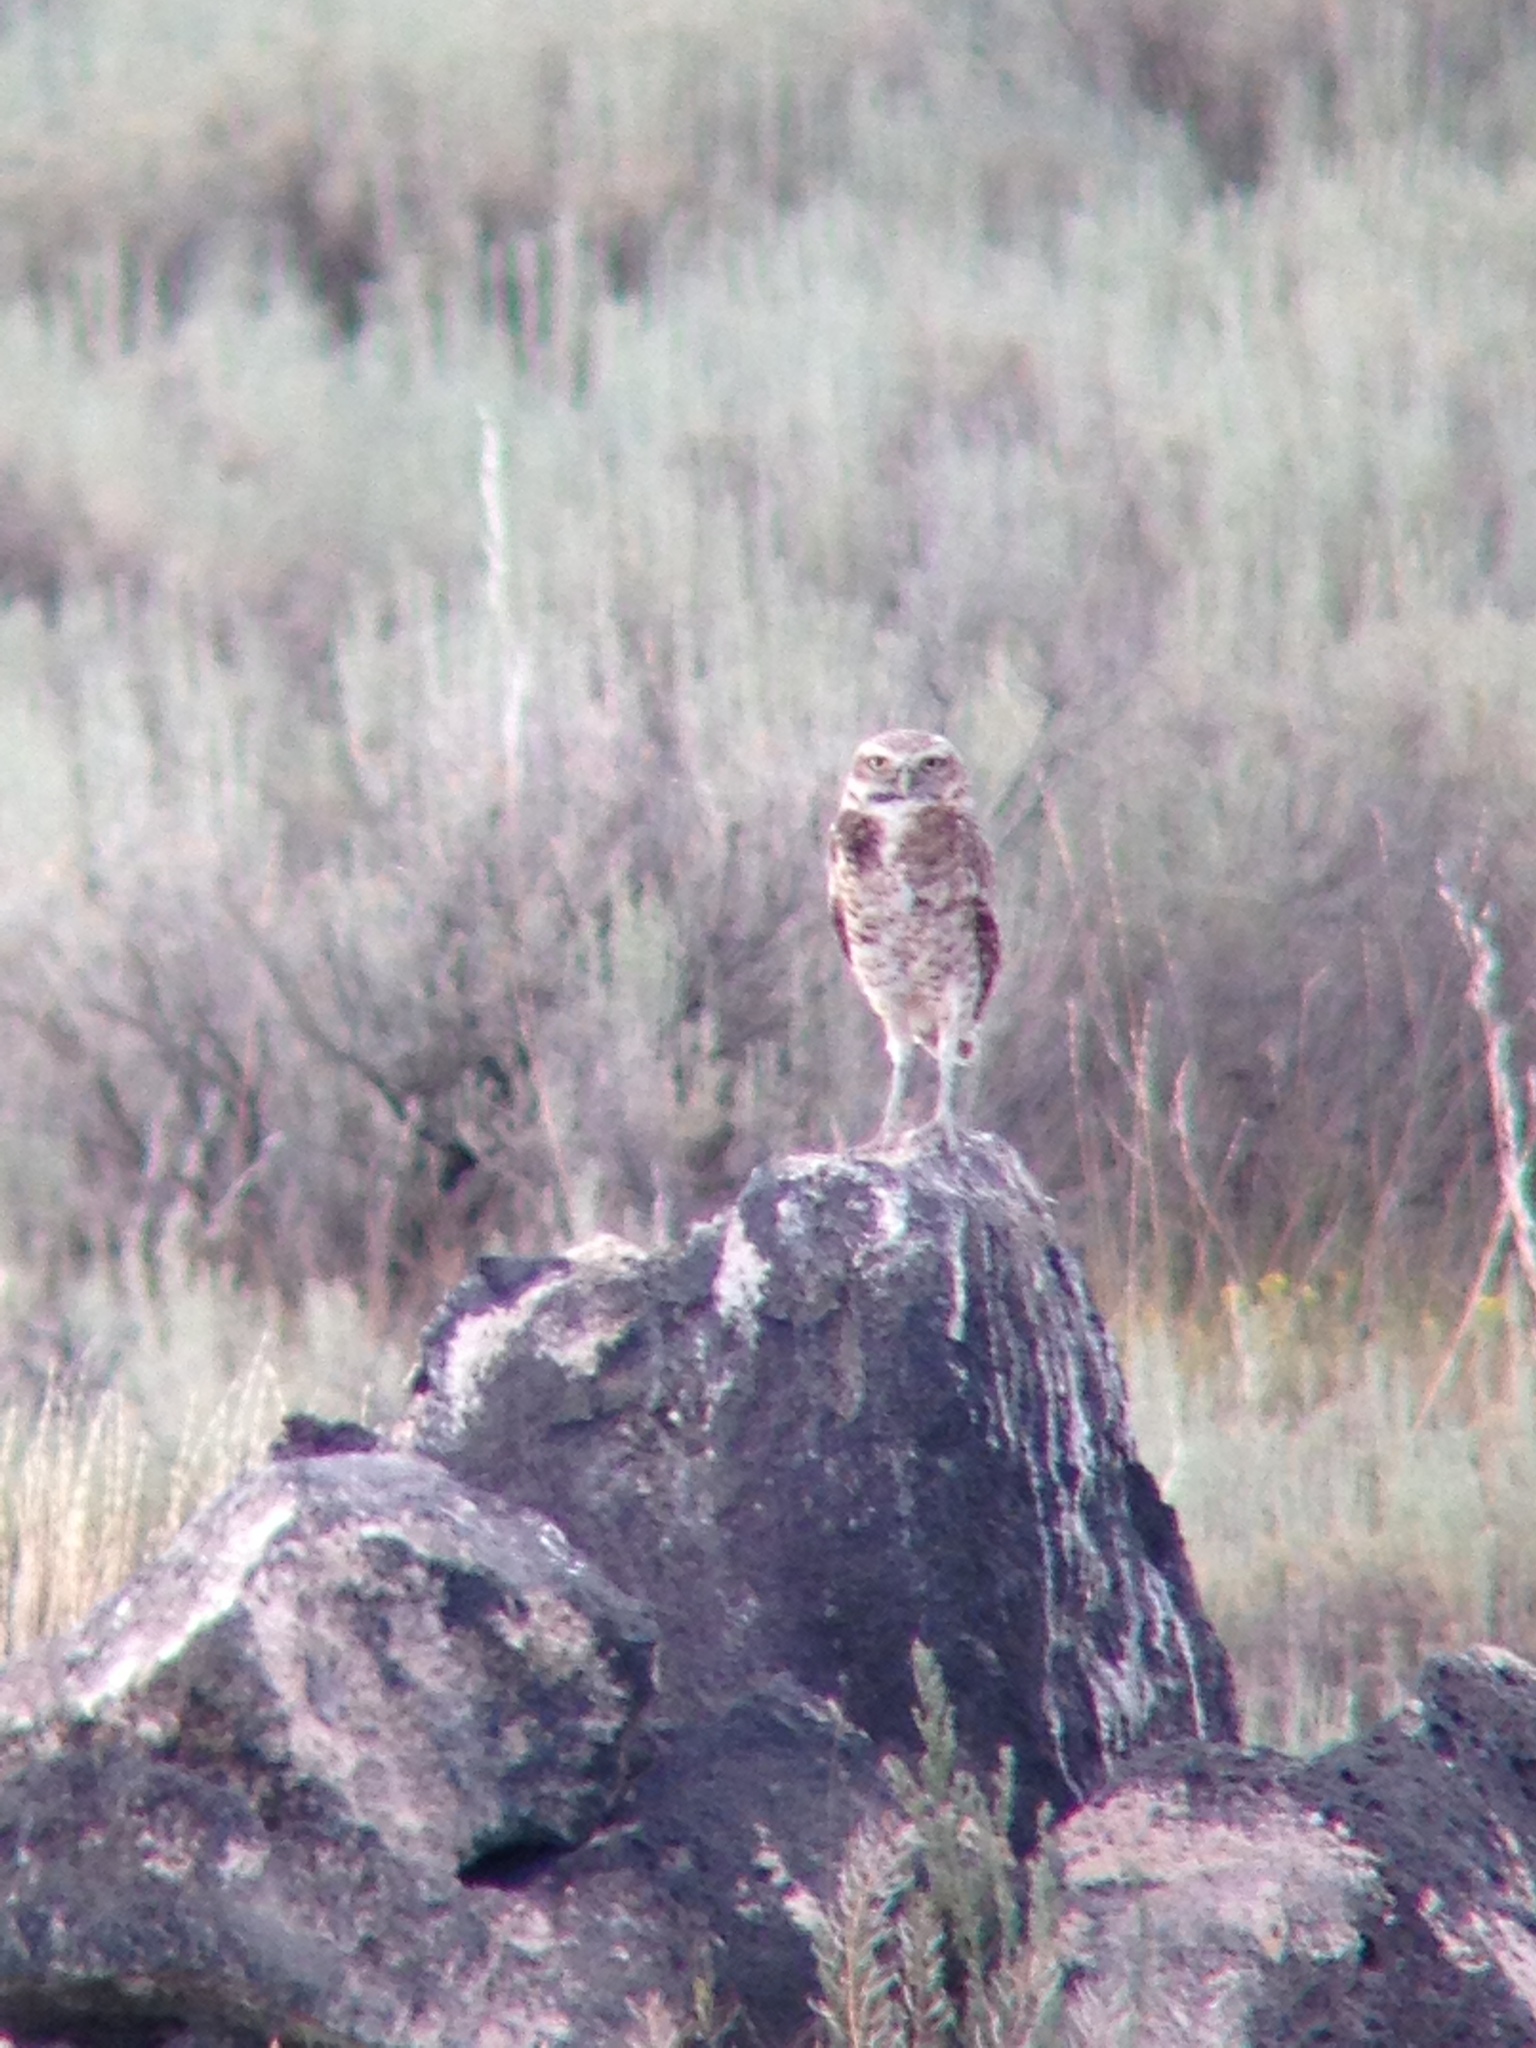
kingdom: Animalia
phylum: Chordata
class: Aves
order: Strigiformes
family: Strigidae
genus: Athene
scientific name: Athene cunicularia
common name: Burrowing owl
